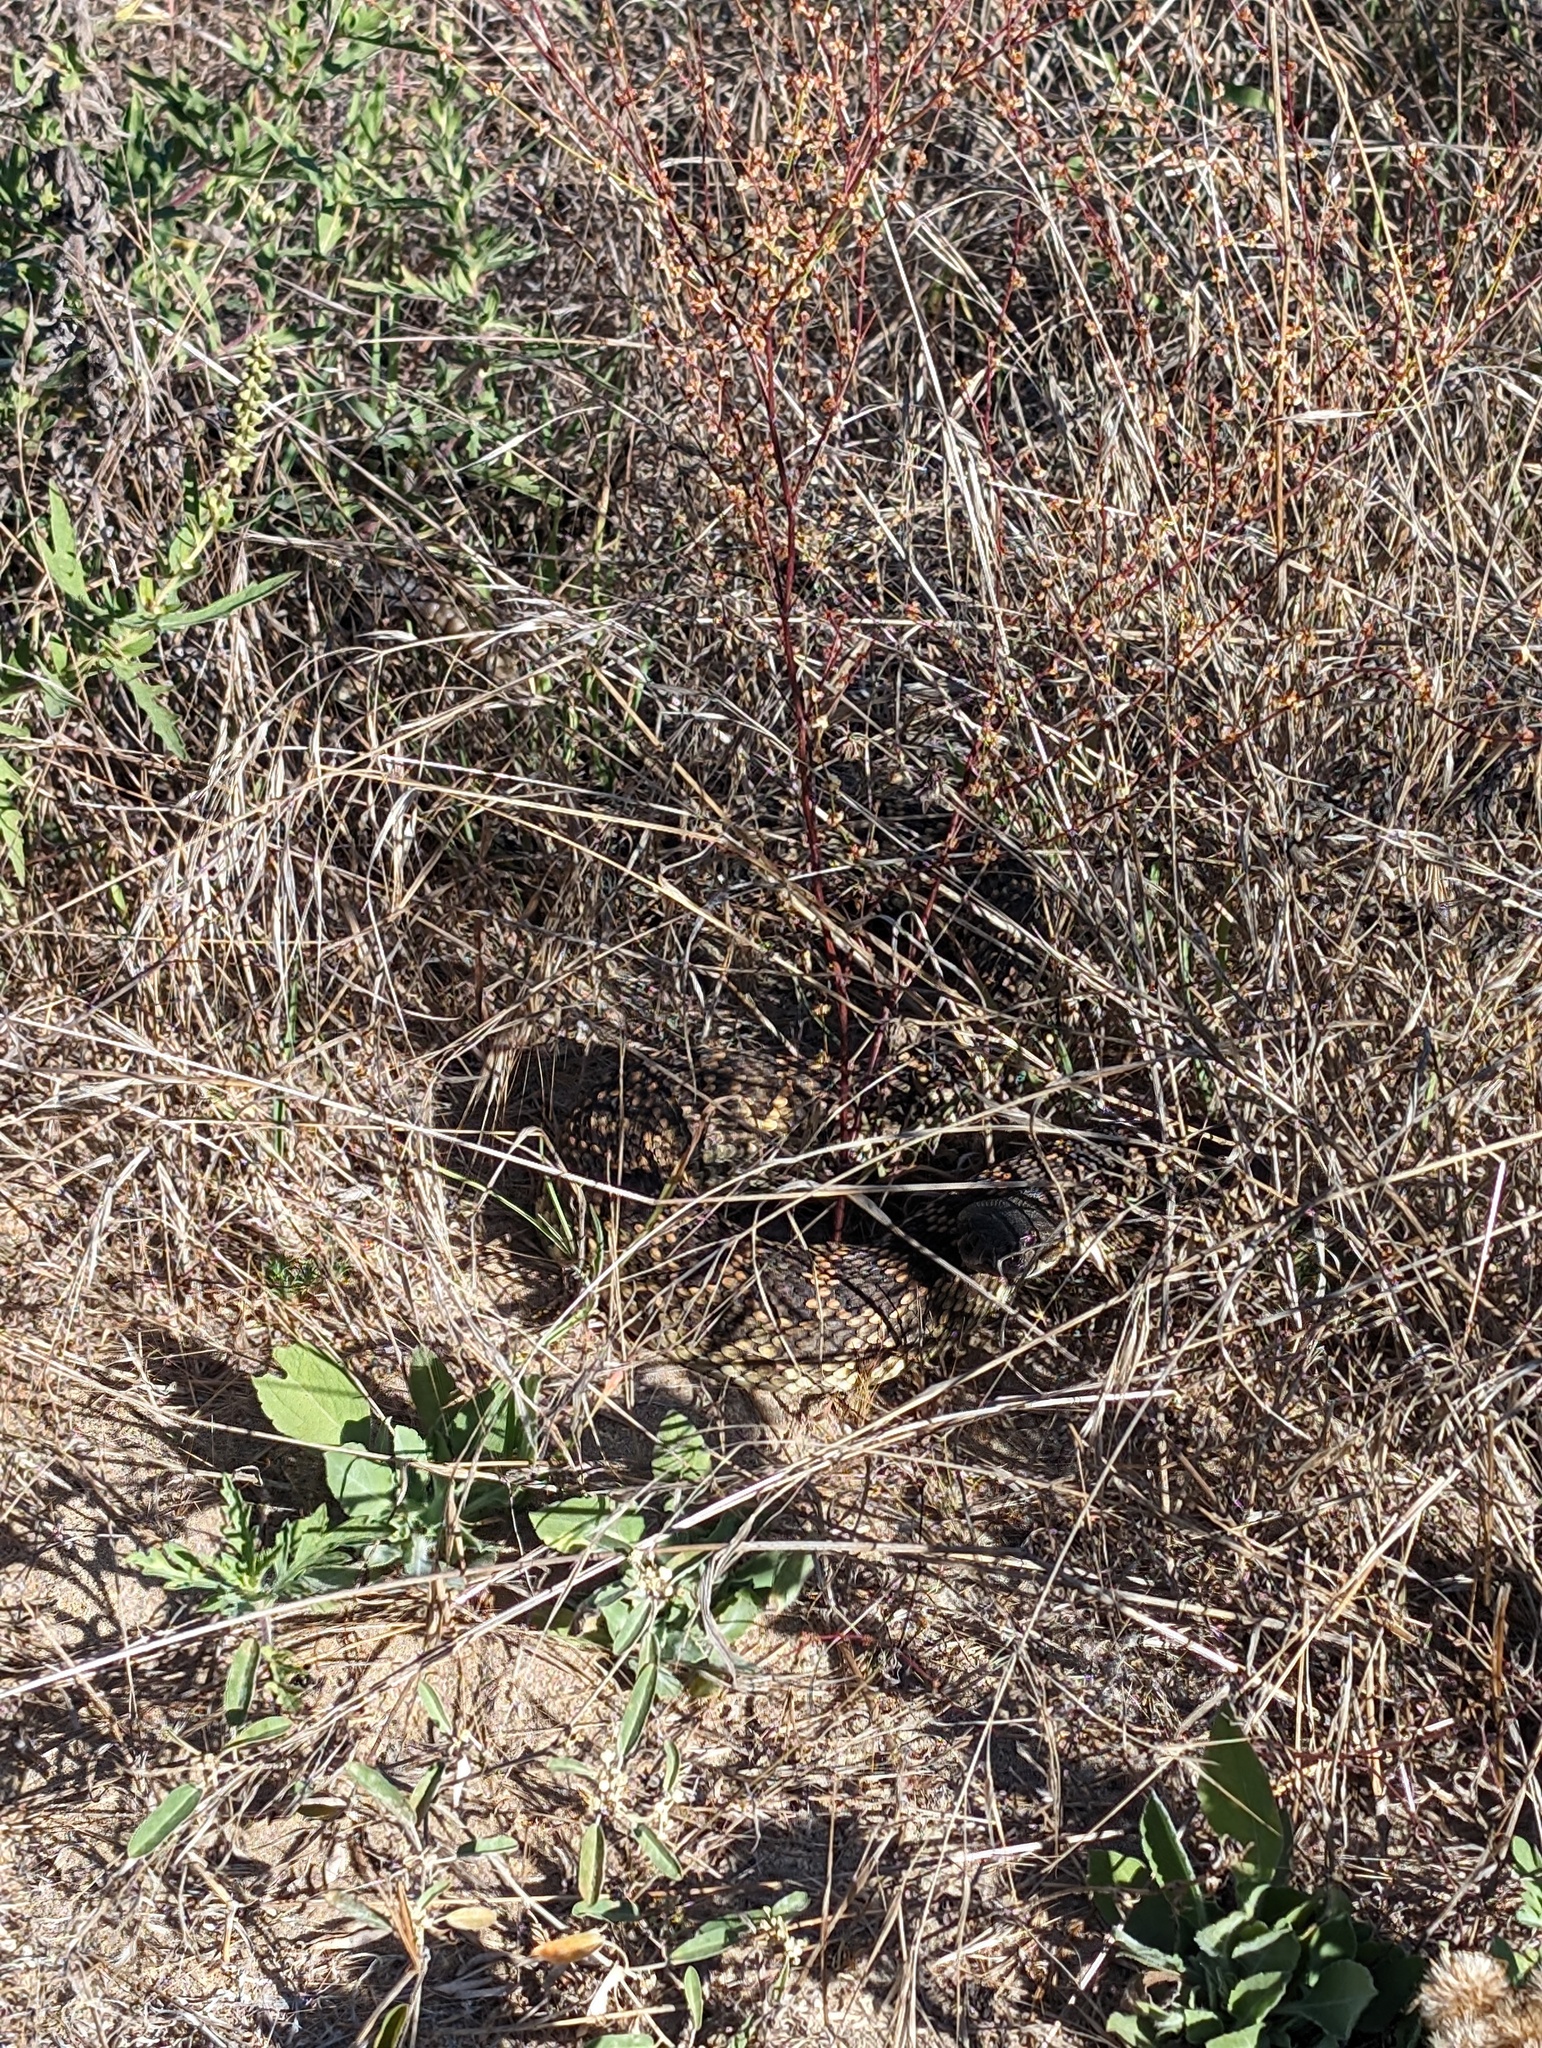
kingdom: Animalia
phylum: Chordata
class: Squamata
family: Viperidae
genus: Crotalus
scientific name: Crotalus oreganus
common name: Abyssus
